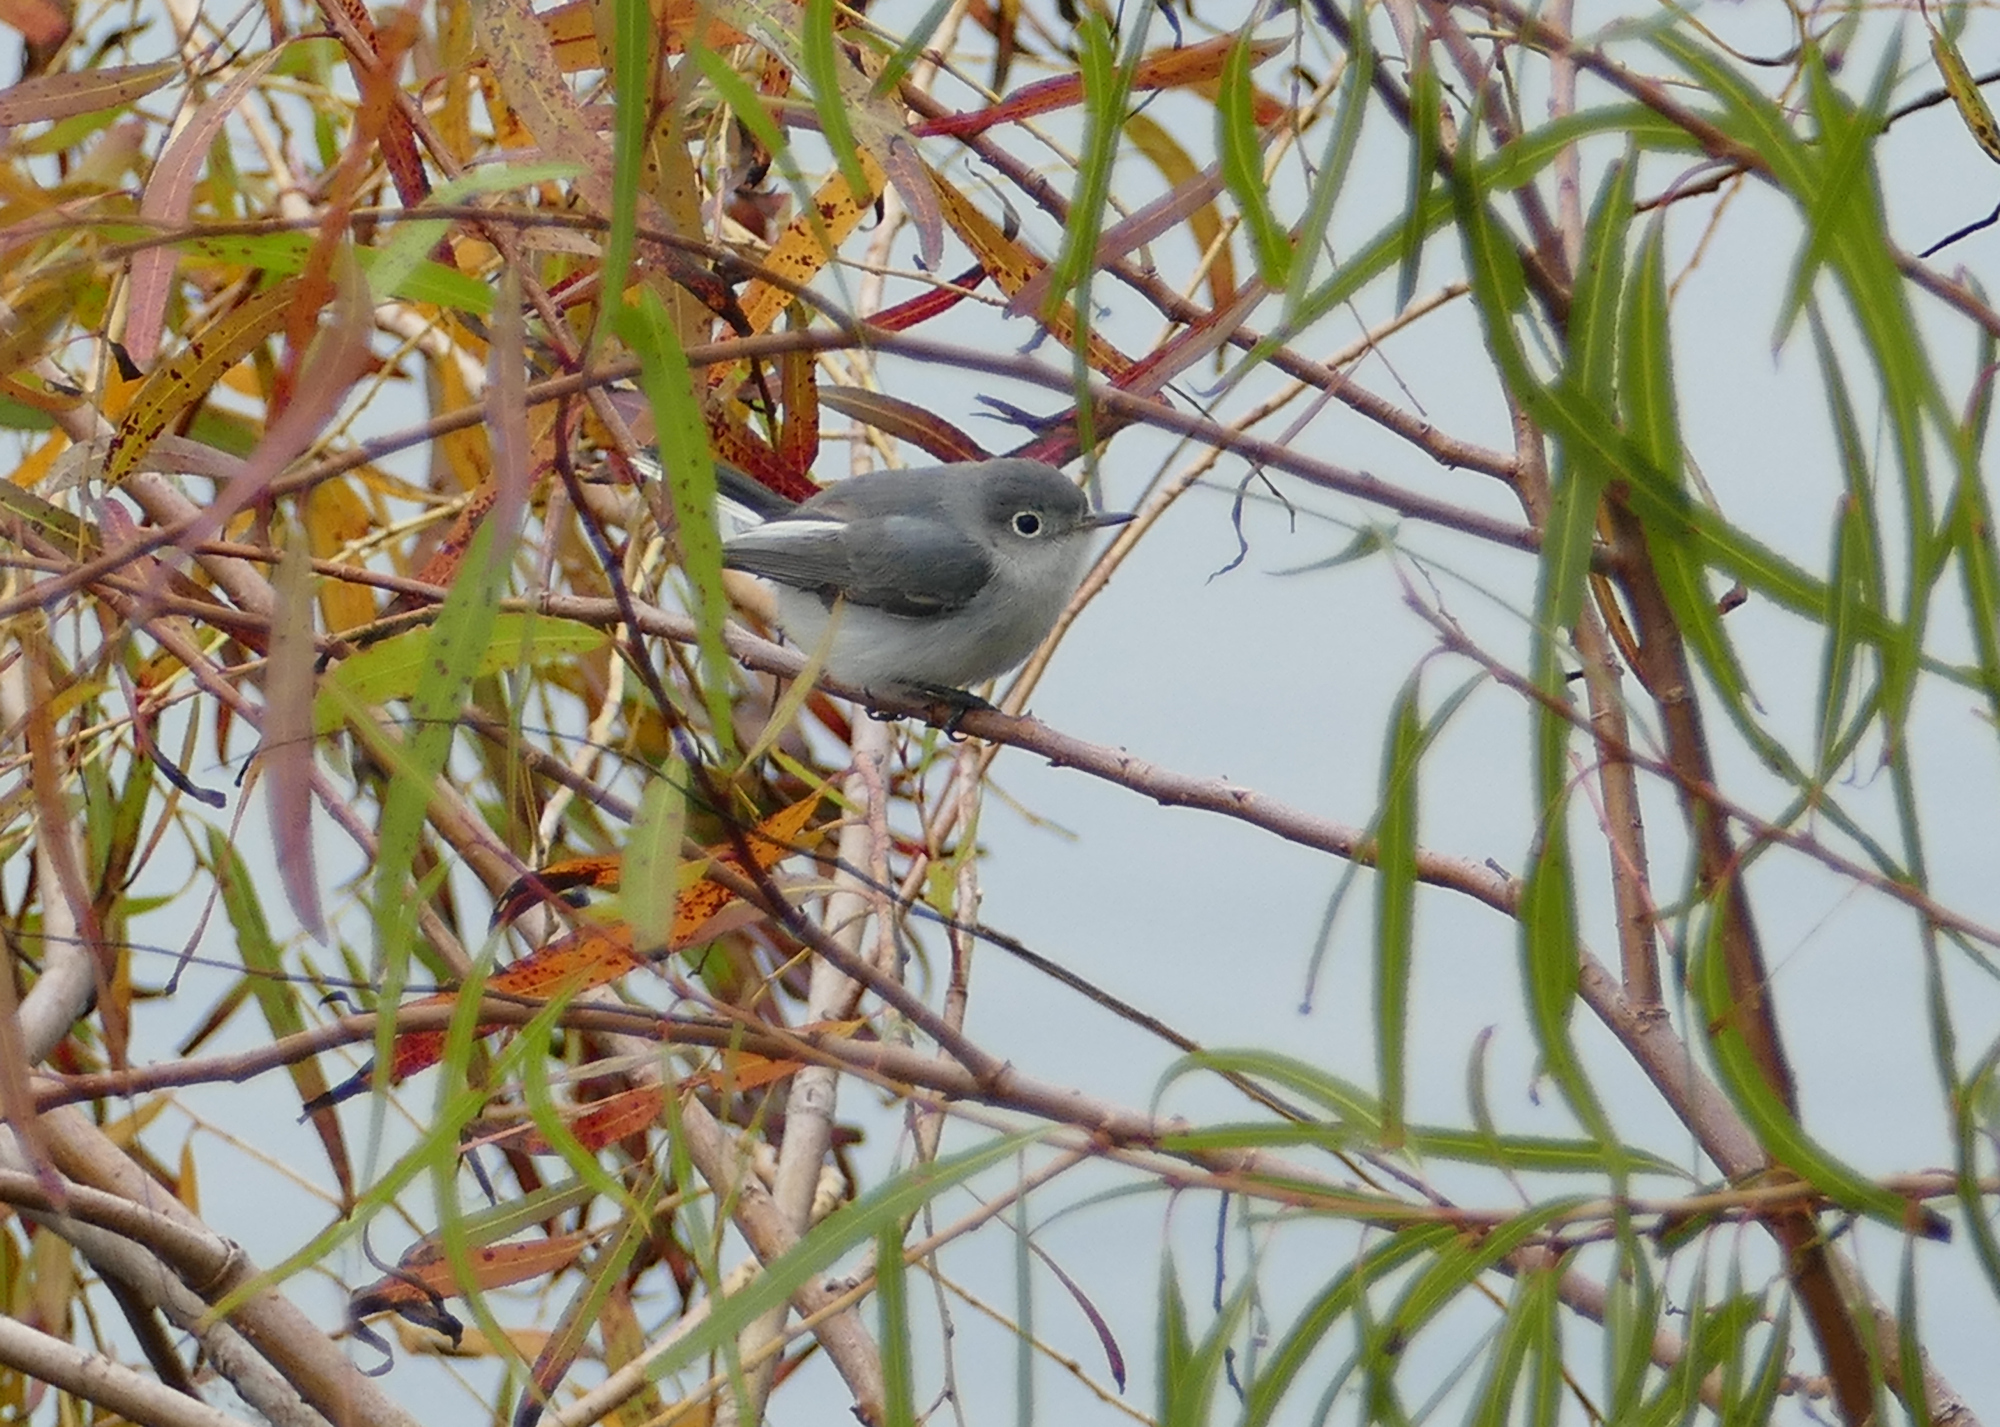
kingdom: Animalia
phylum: Chordata
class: Aves
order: Passeriformes
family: Polioptilidae
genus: Polioptila
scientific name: Polioptila caerulea
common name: Blue-gray gnatcatcher
